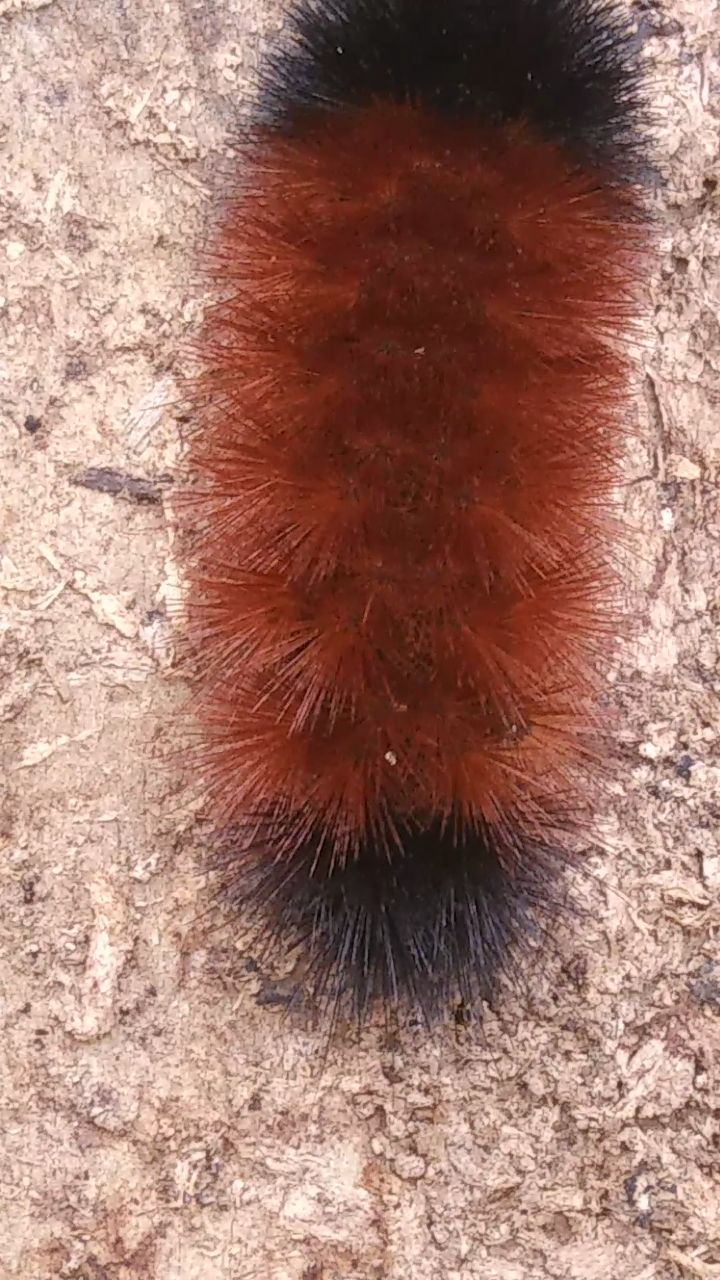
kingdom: Animalia
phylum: Arthropoda
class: Insecta
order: Lepidoptera
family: Erebidae
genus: Pyrrharctia
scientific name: Pyrrharctia isabella
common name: Isabella tiger moth
